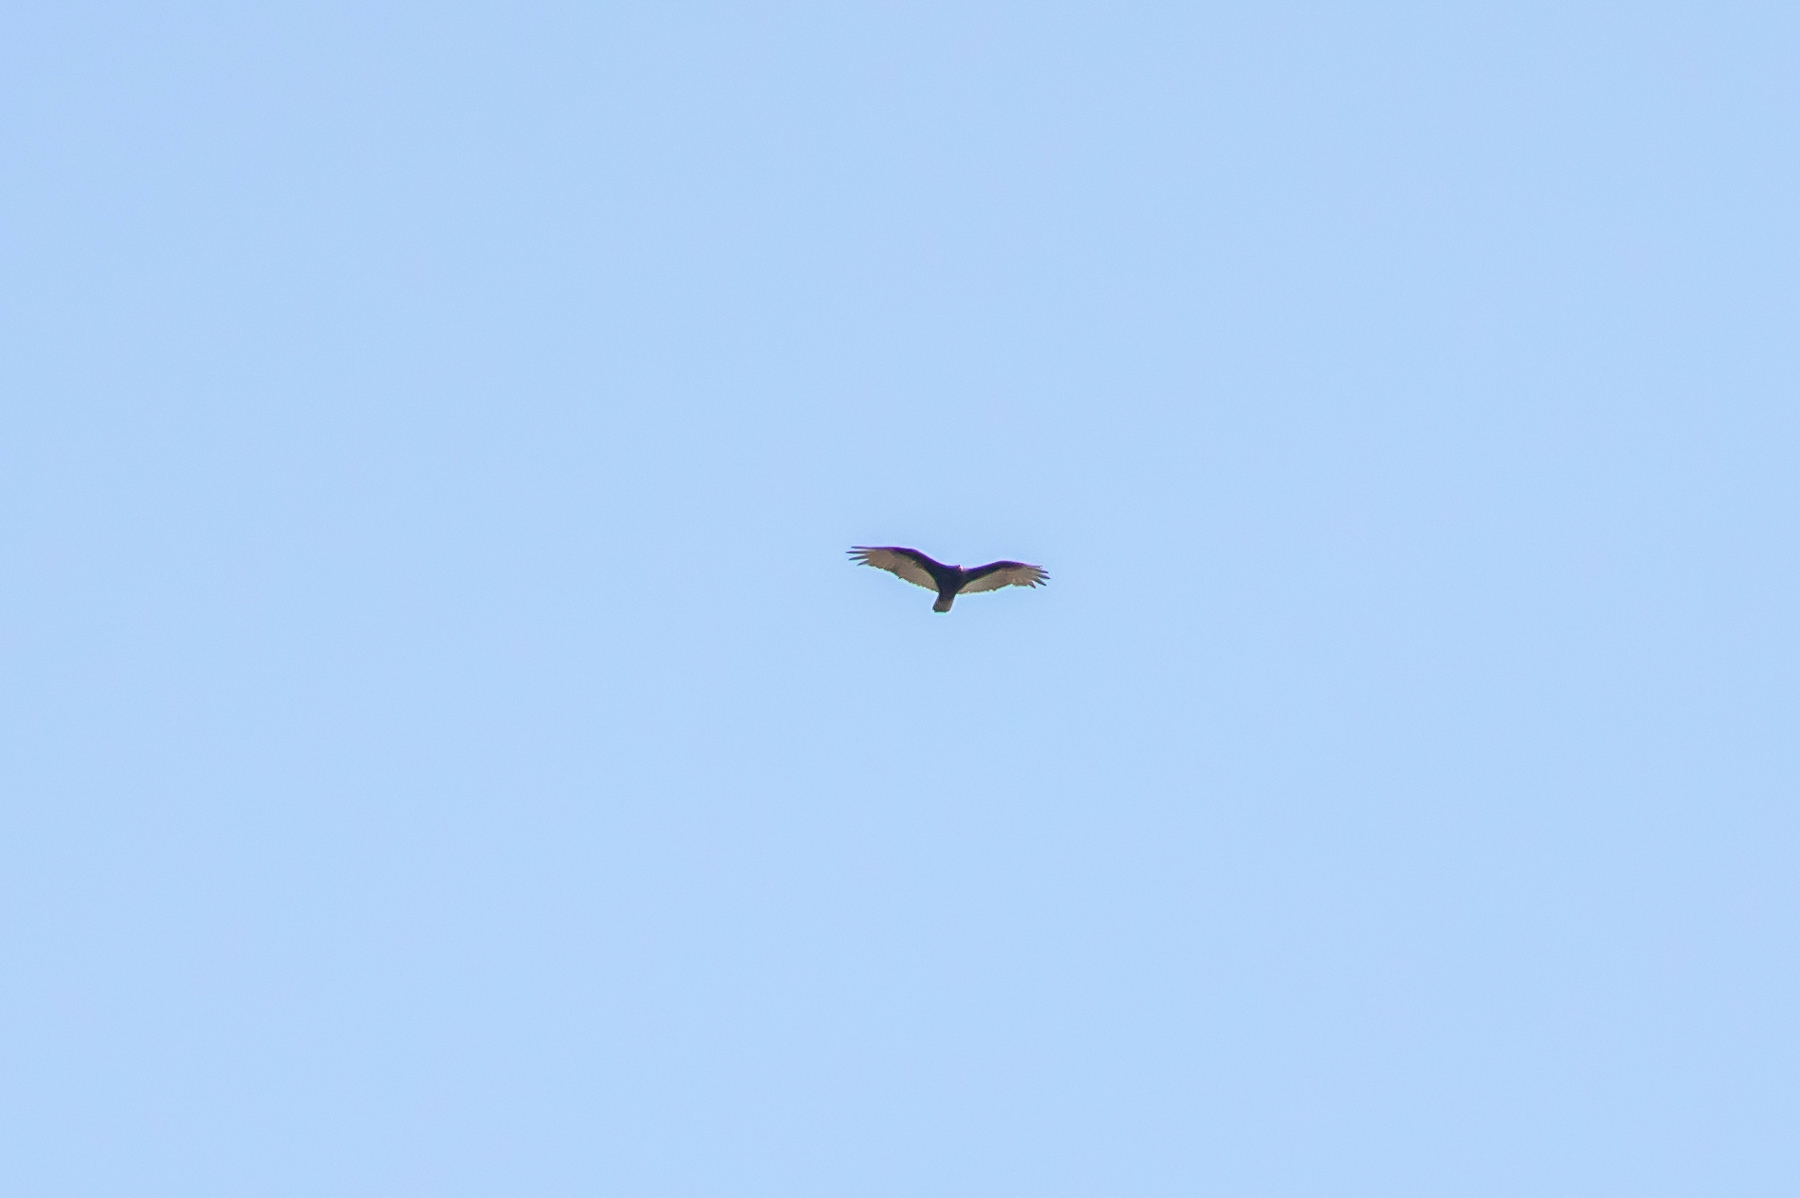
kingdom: Animalia
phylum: Chordata
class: Aves
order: Accipitriformes
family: Cathartidae
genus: Cathartes
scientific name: Cathartes aura
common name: Turkey vulture
